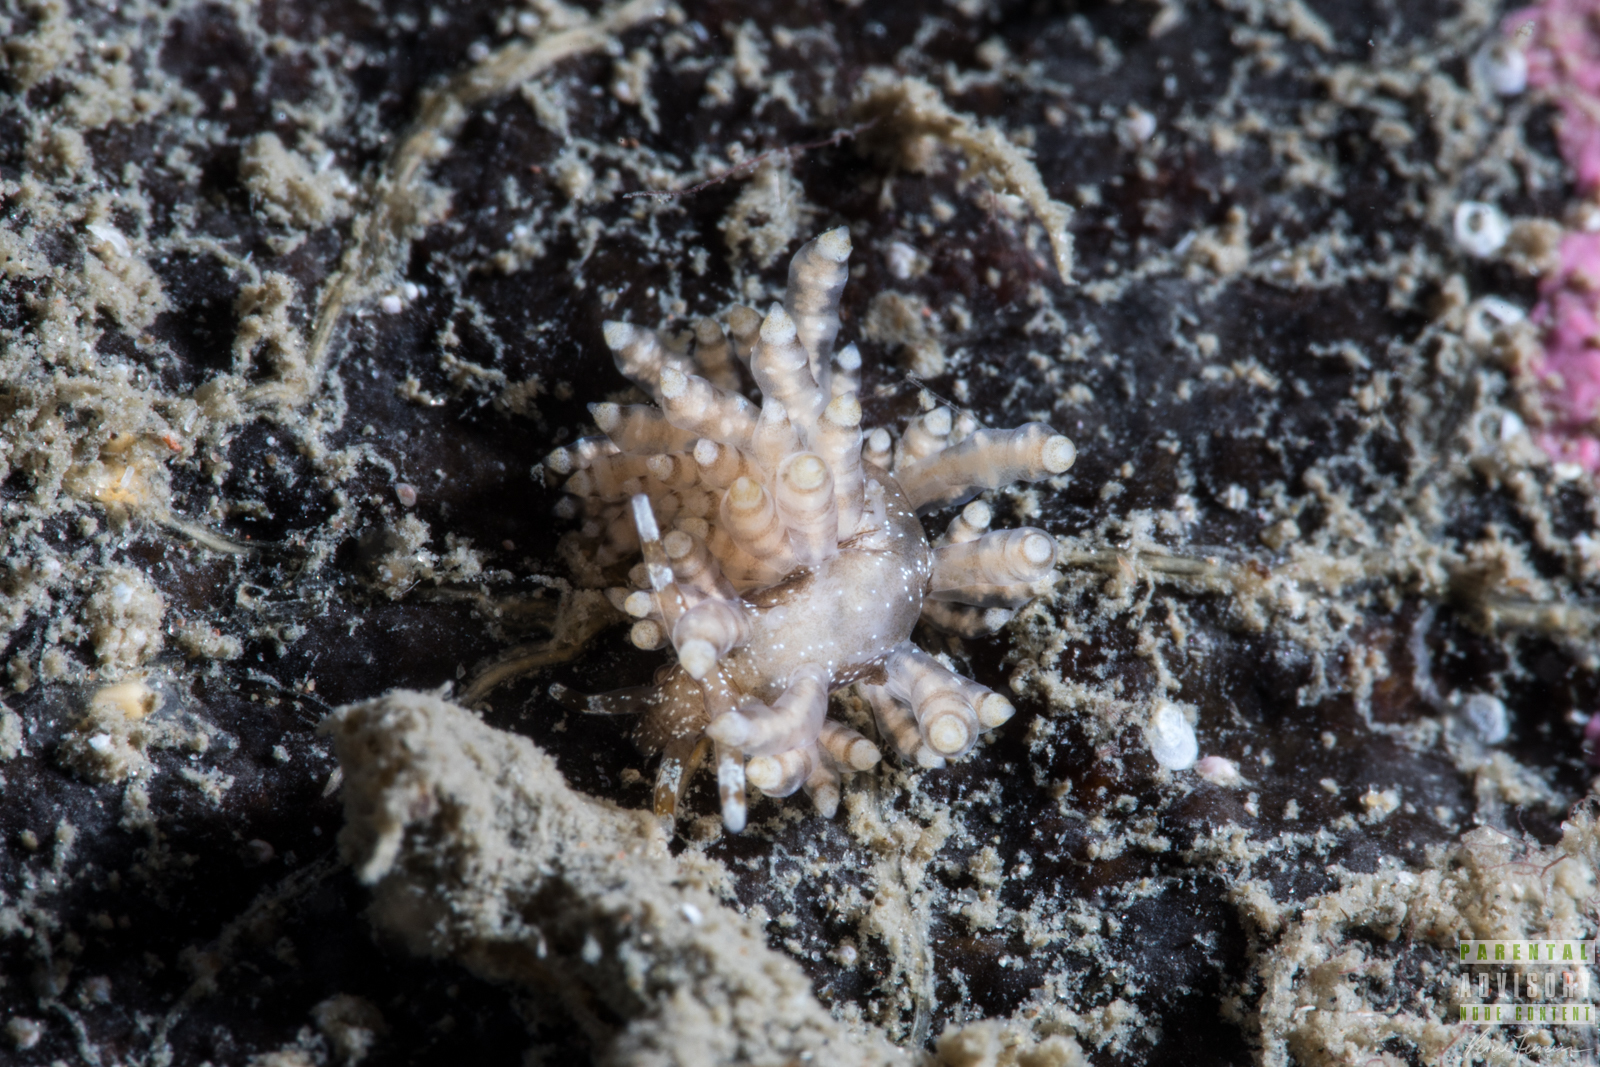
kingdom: Animalia
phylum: Mollusca
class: Gastropoda
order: Nudibranchia
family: Eubranchidae
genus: Eubranchus
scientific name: Eubranchus vittatus
